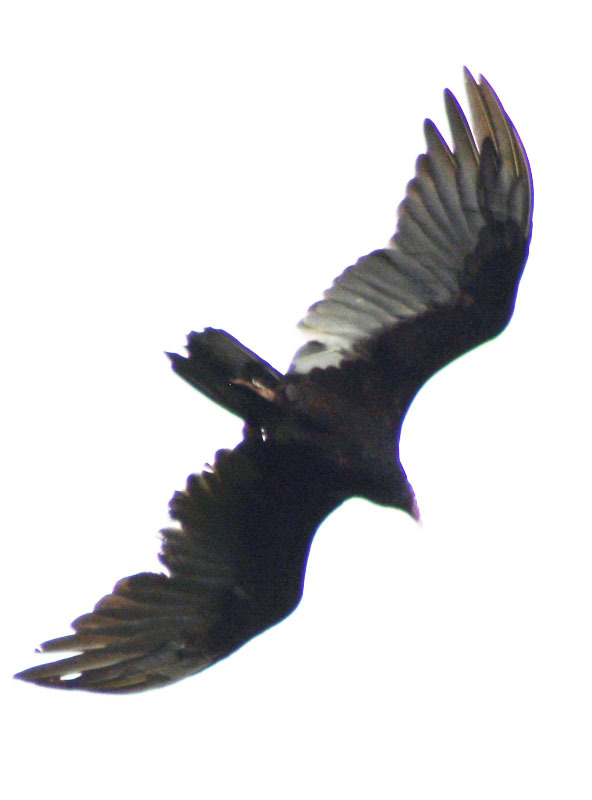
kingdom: Animalia
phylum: Chordata
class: Aves
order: Accipitriformes
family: Cathartidae
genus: Cathartes
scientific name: Cathartes aura
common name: Turkey vulture
